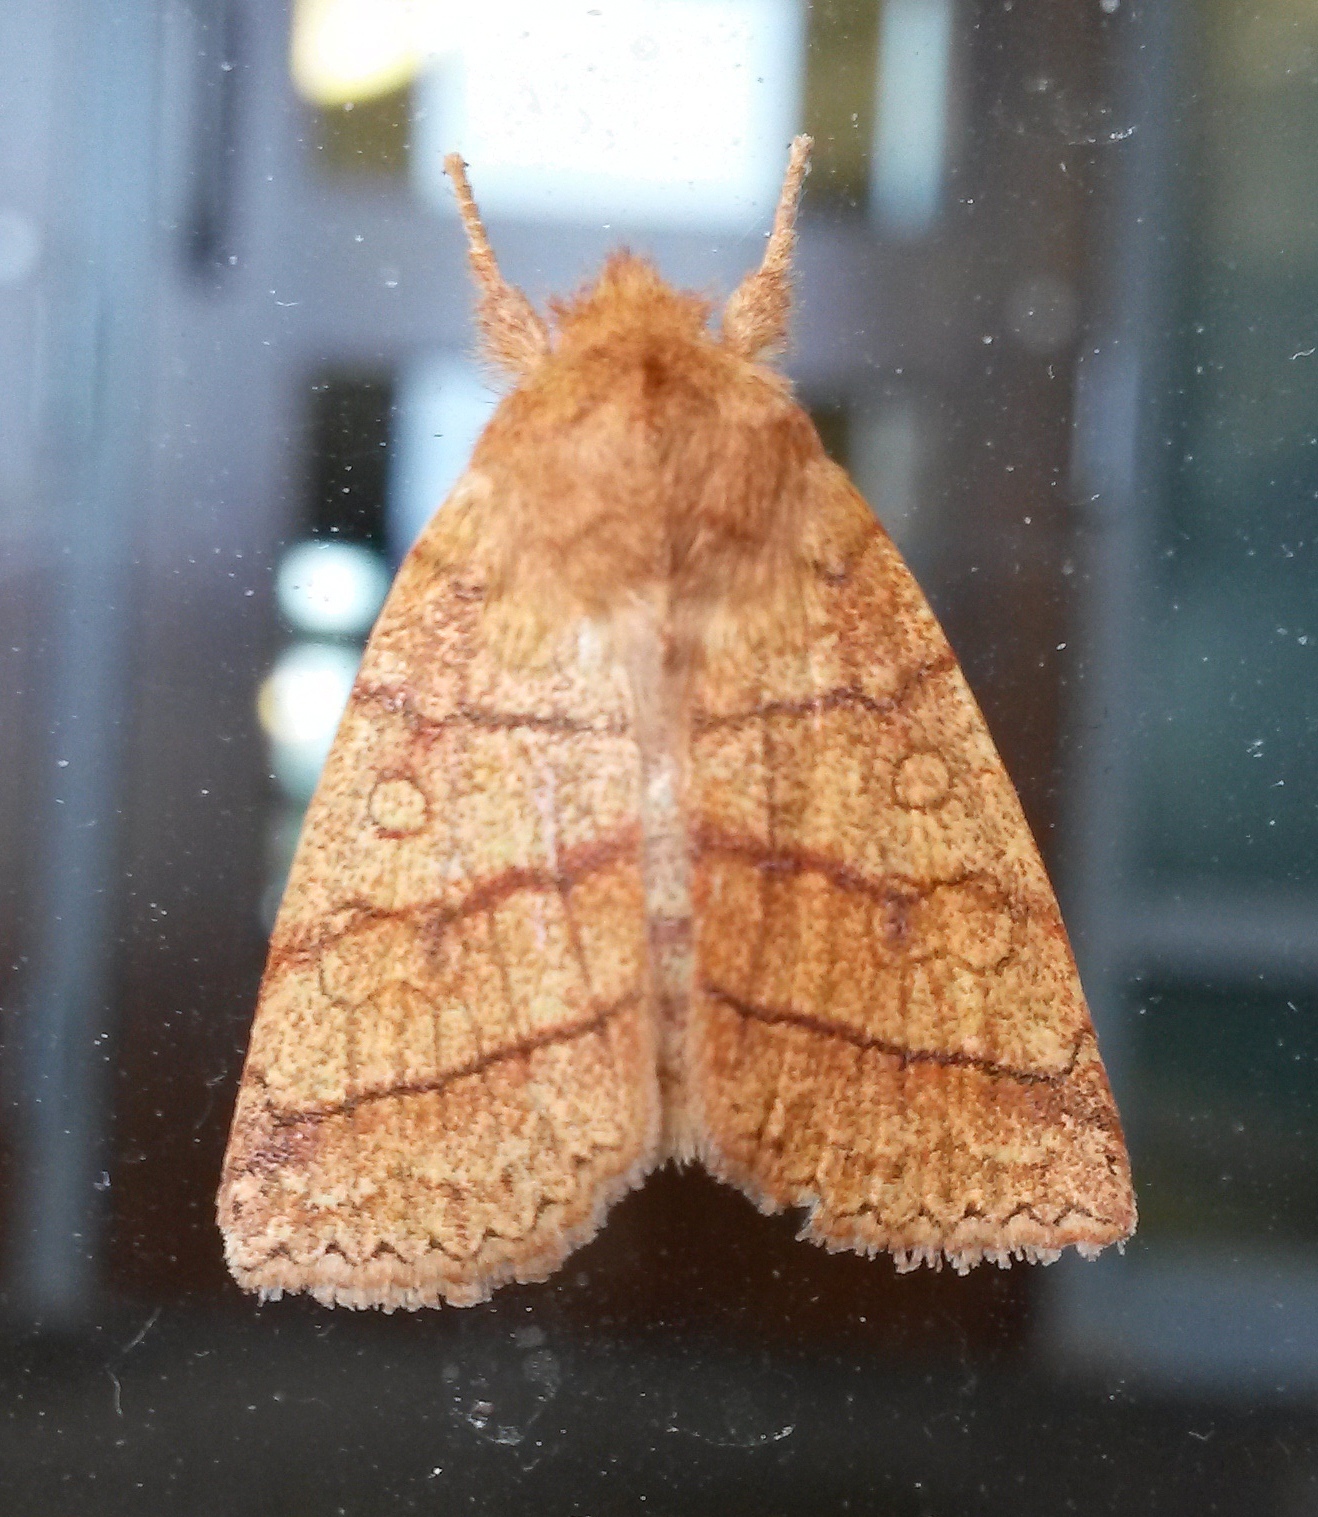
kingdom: Animalia
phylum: Arthropoda
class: Insecta
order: Lepidoptera
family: Noctuidae
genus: Pyreferra
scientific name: Pyreferra hesperidago
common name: Mustard sallow
